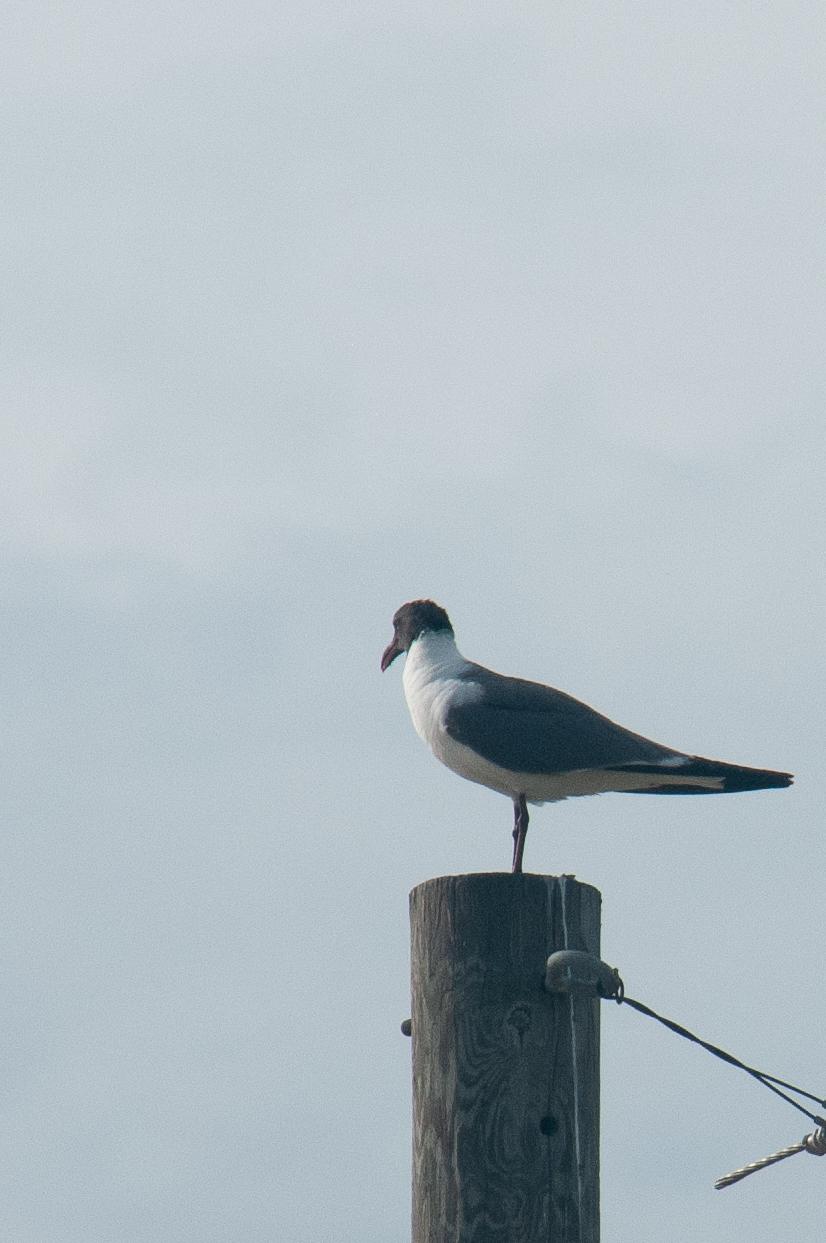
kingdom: Animalia
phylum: Chordata
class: Aves
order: Charadriiformes
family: Laridae
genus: Leucophaeus
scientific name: Leucophaeus atricilla
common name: Laughing gull
